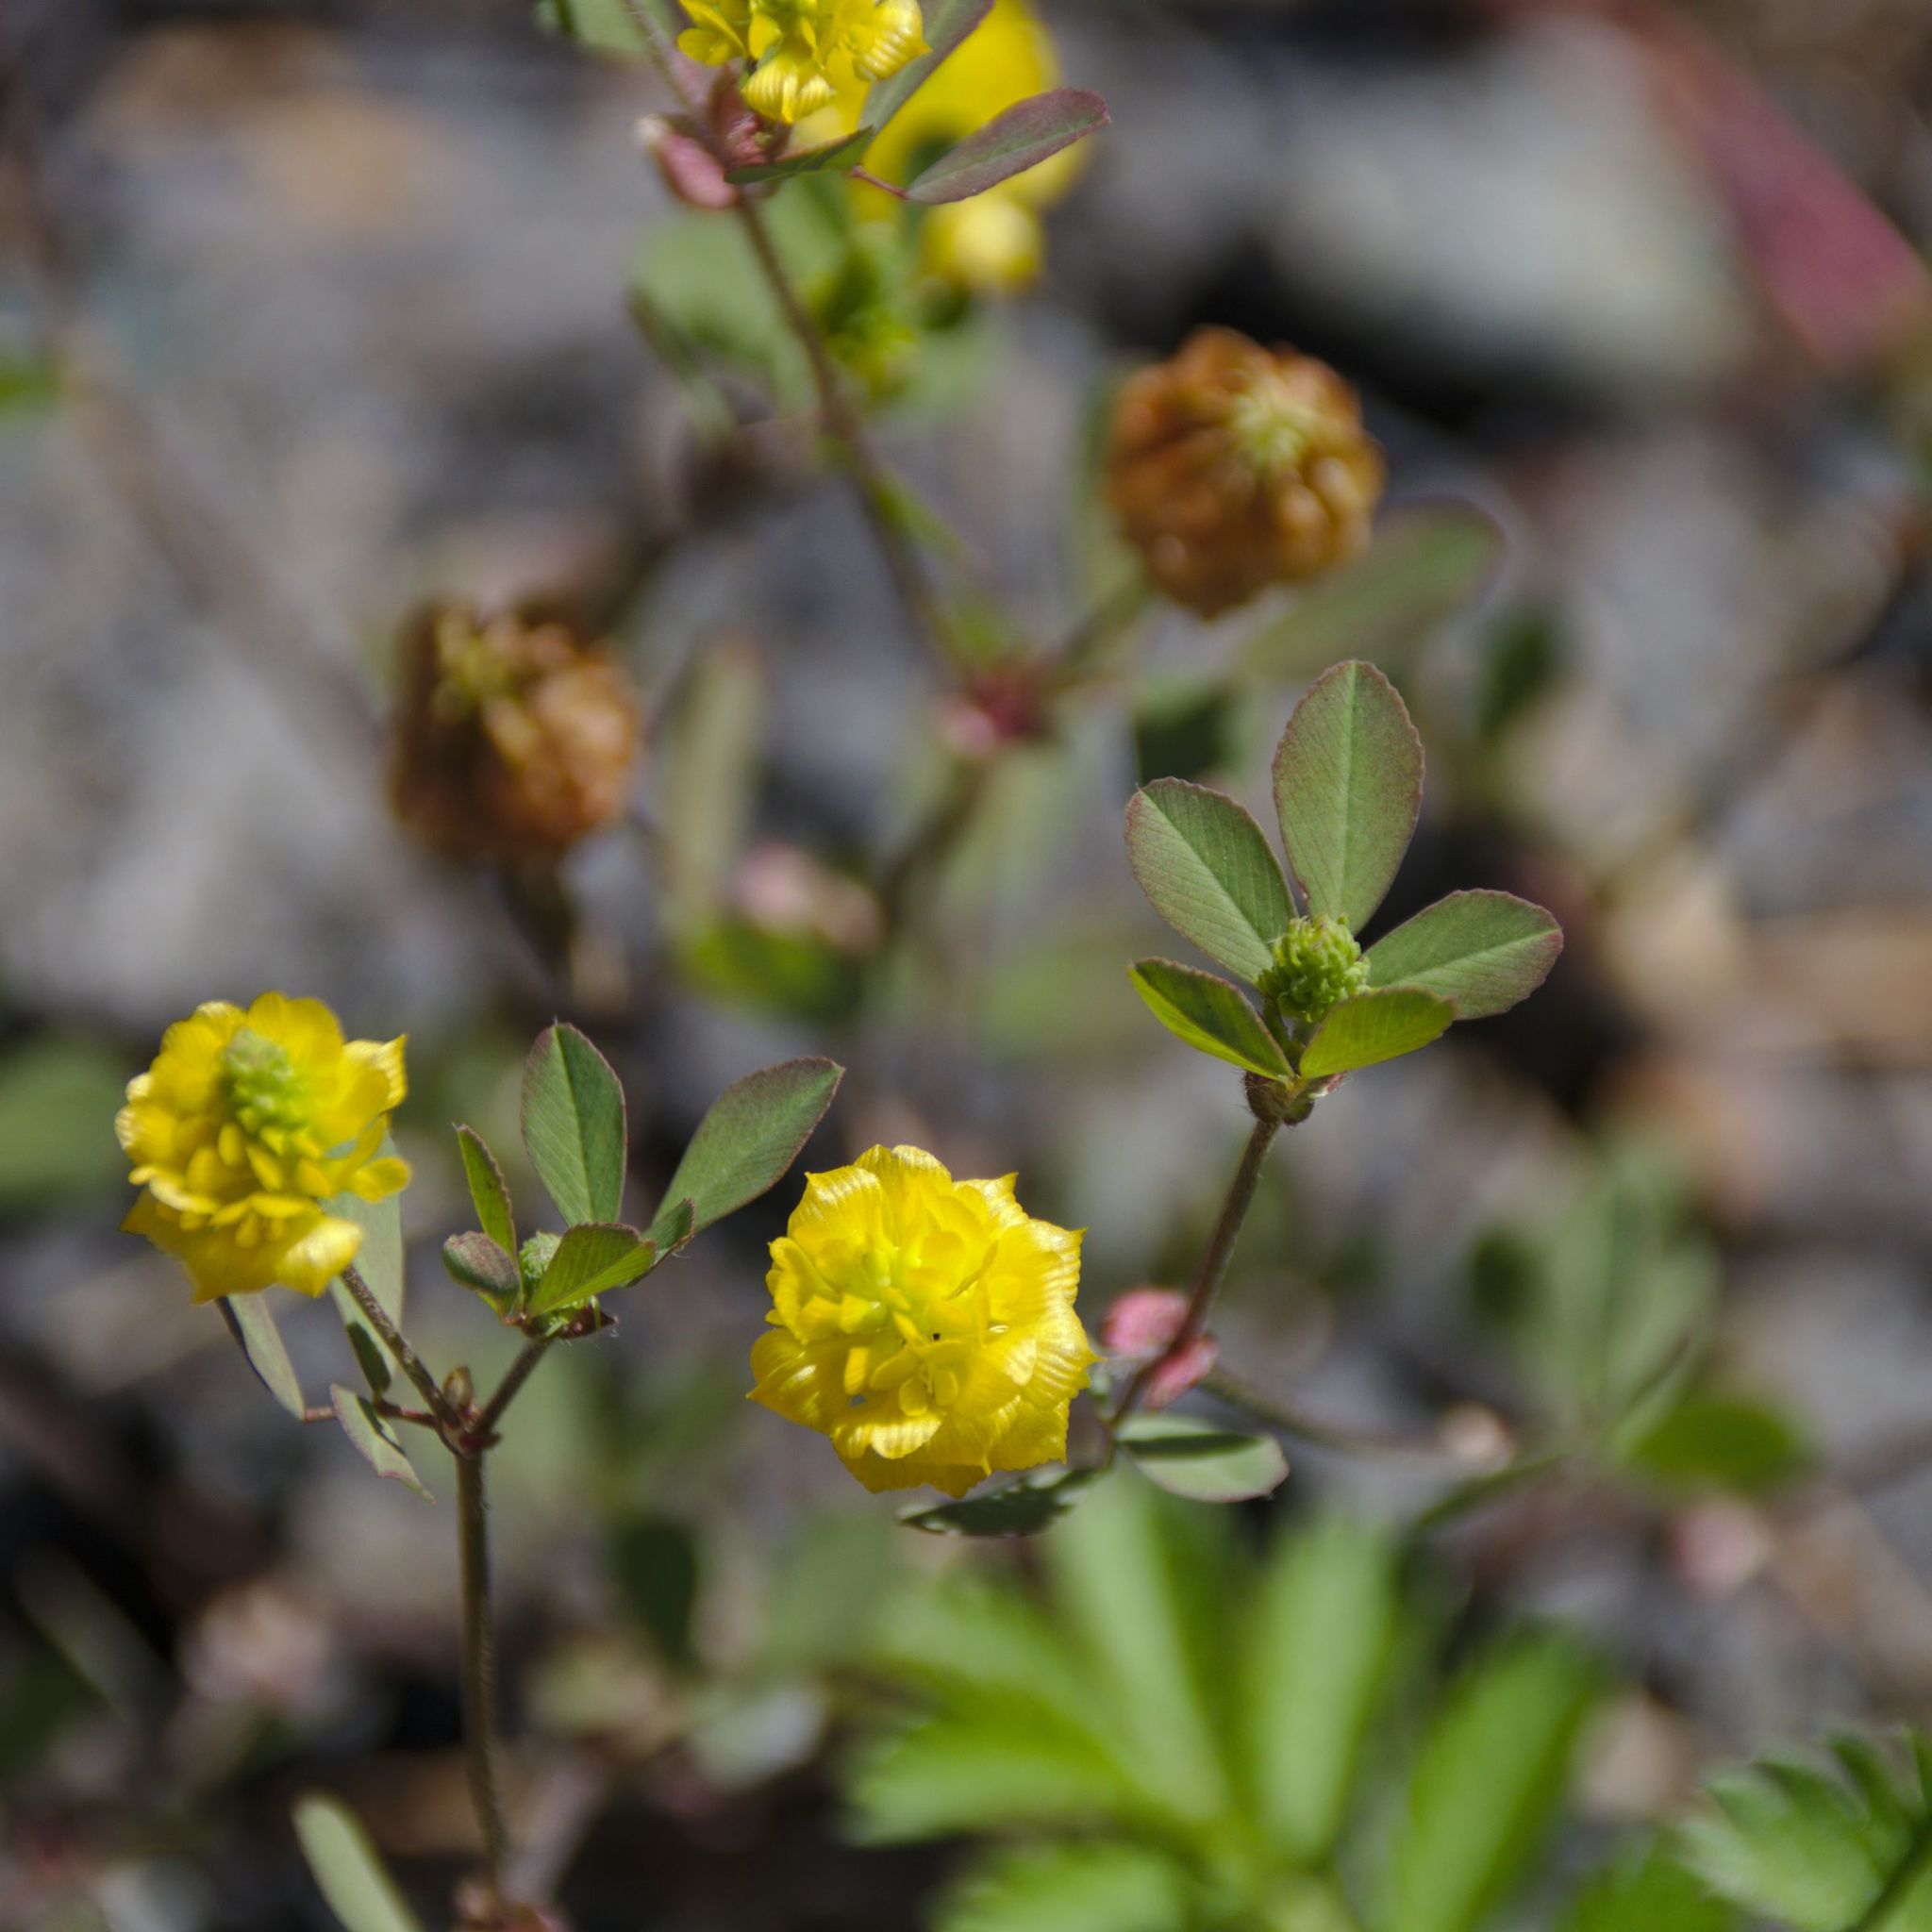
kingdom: Plantae
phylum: Tracheophyta
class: Magnoliopsida
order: Fabales
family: Fabaceae
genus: Trifolium
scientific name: Trifolium campestre
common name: Field clover
